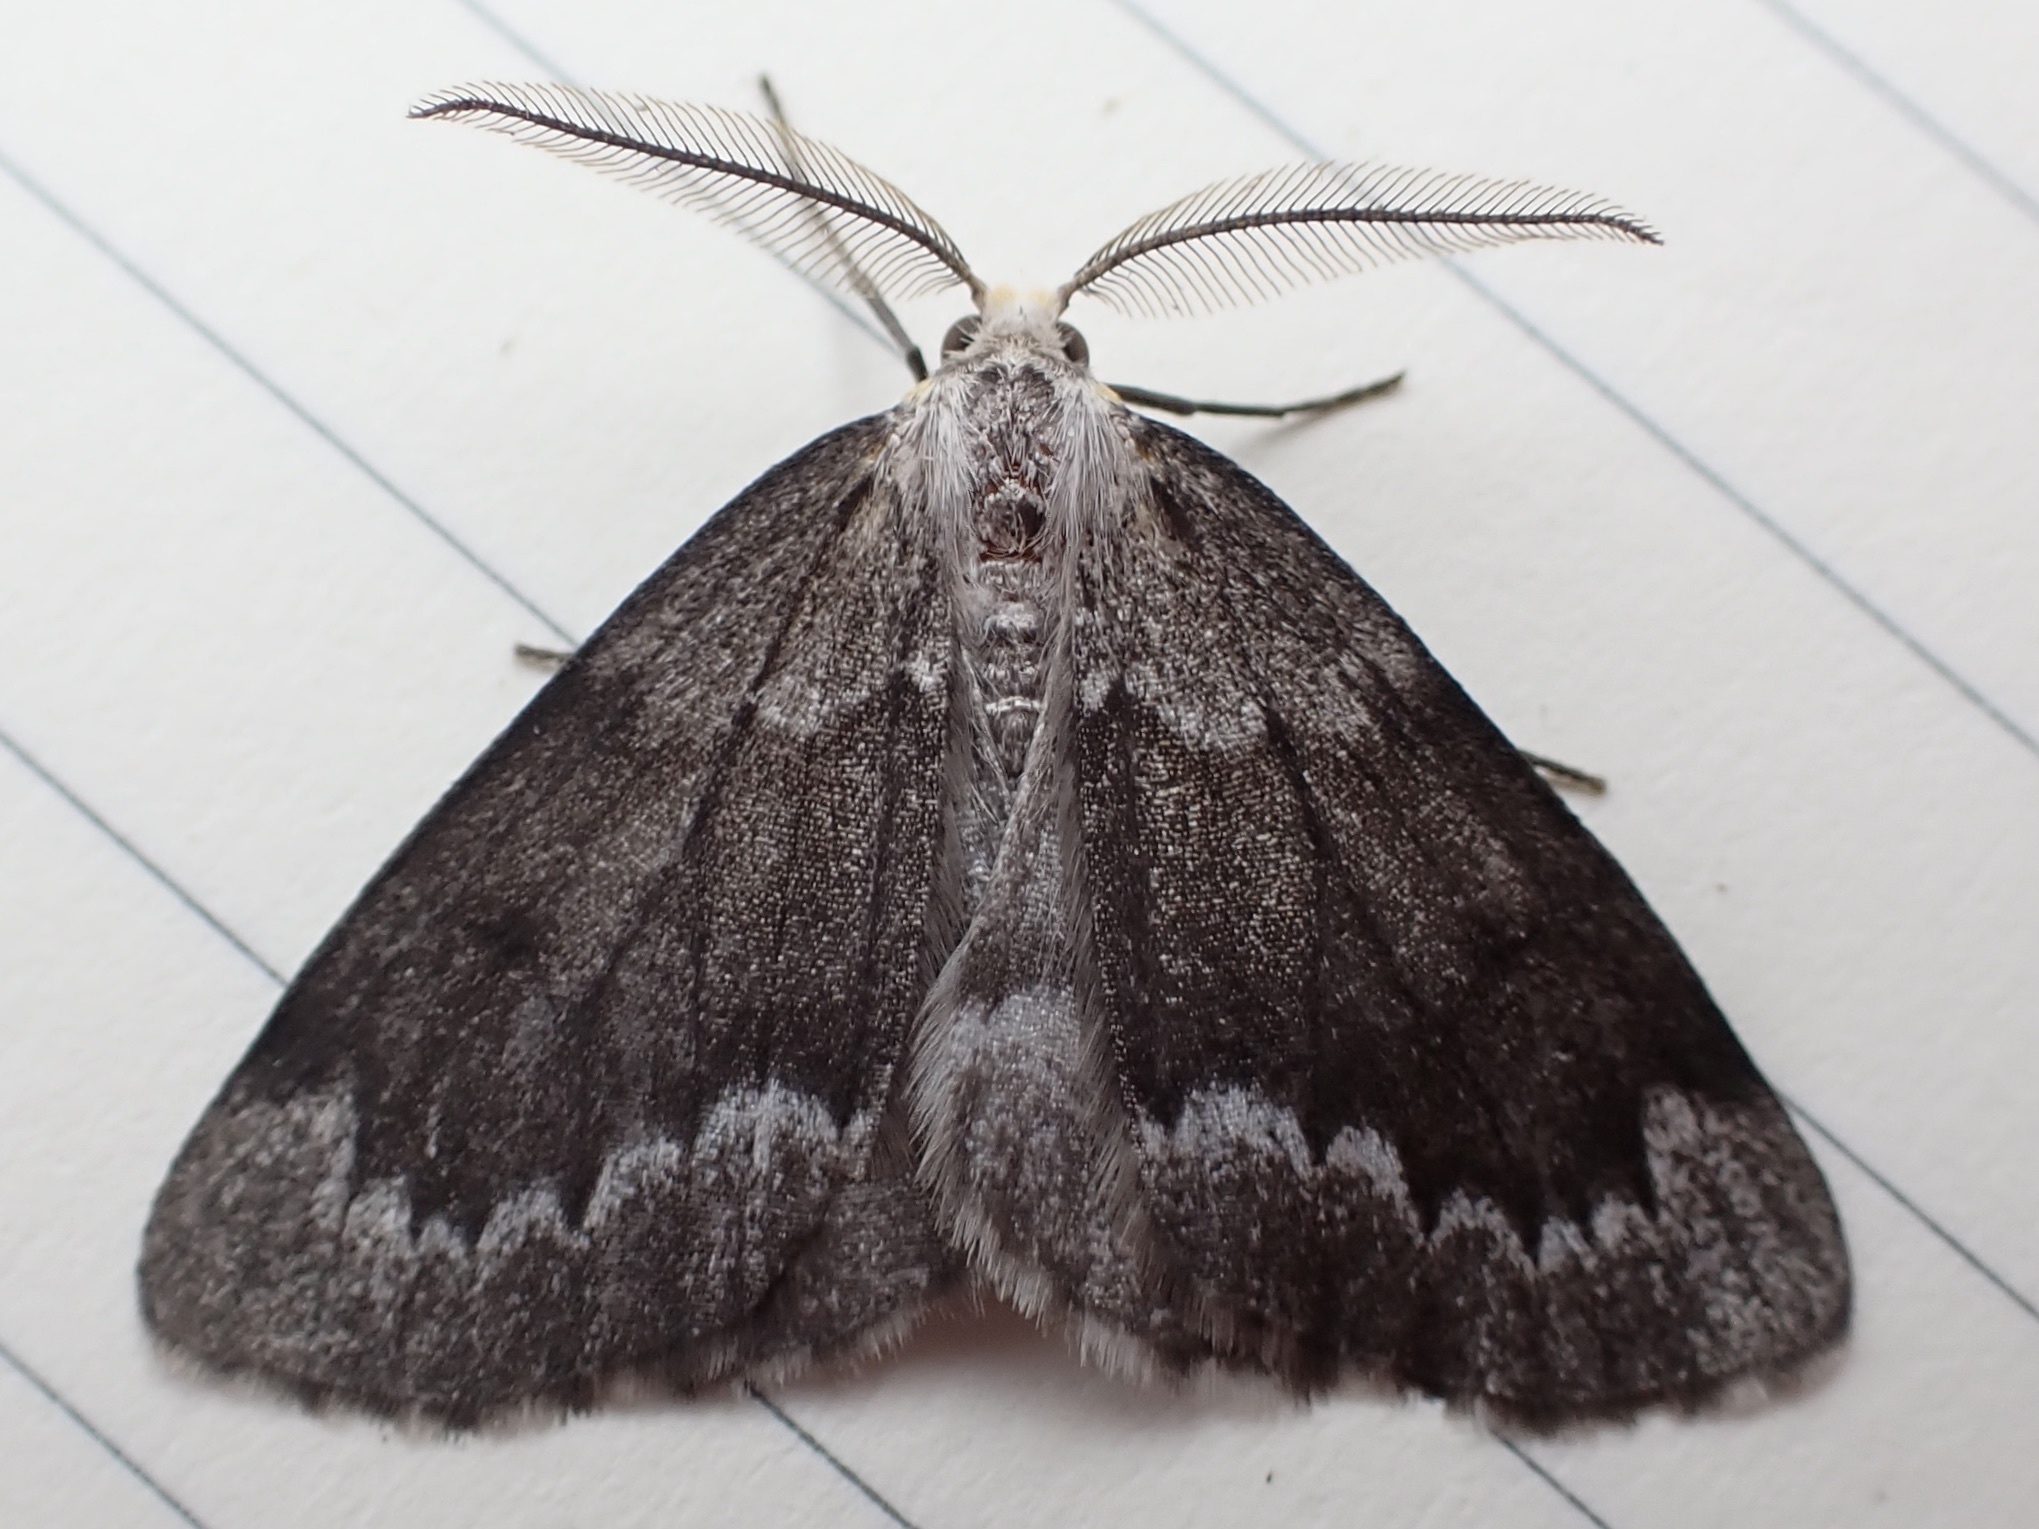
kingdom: Animalia
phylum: Arthropoda
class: Insecta
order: Lepidoptera
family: Geometridae
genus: Nepytia
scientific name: Nepytia canosaria
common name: False hemlock looper
